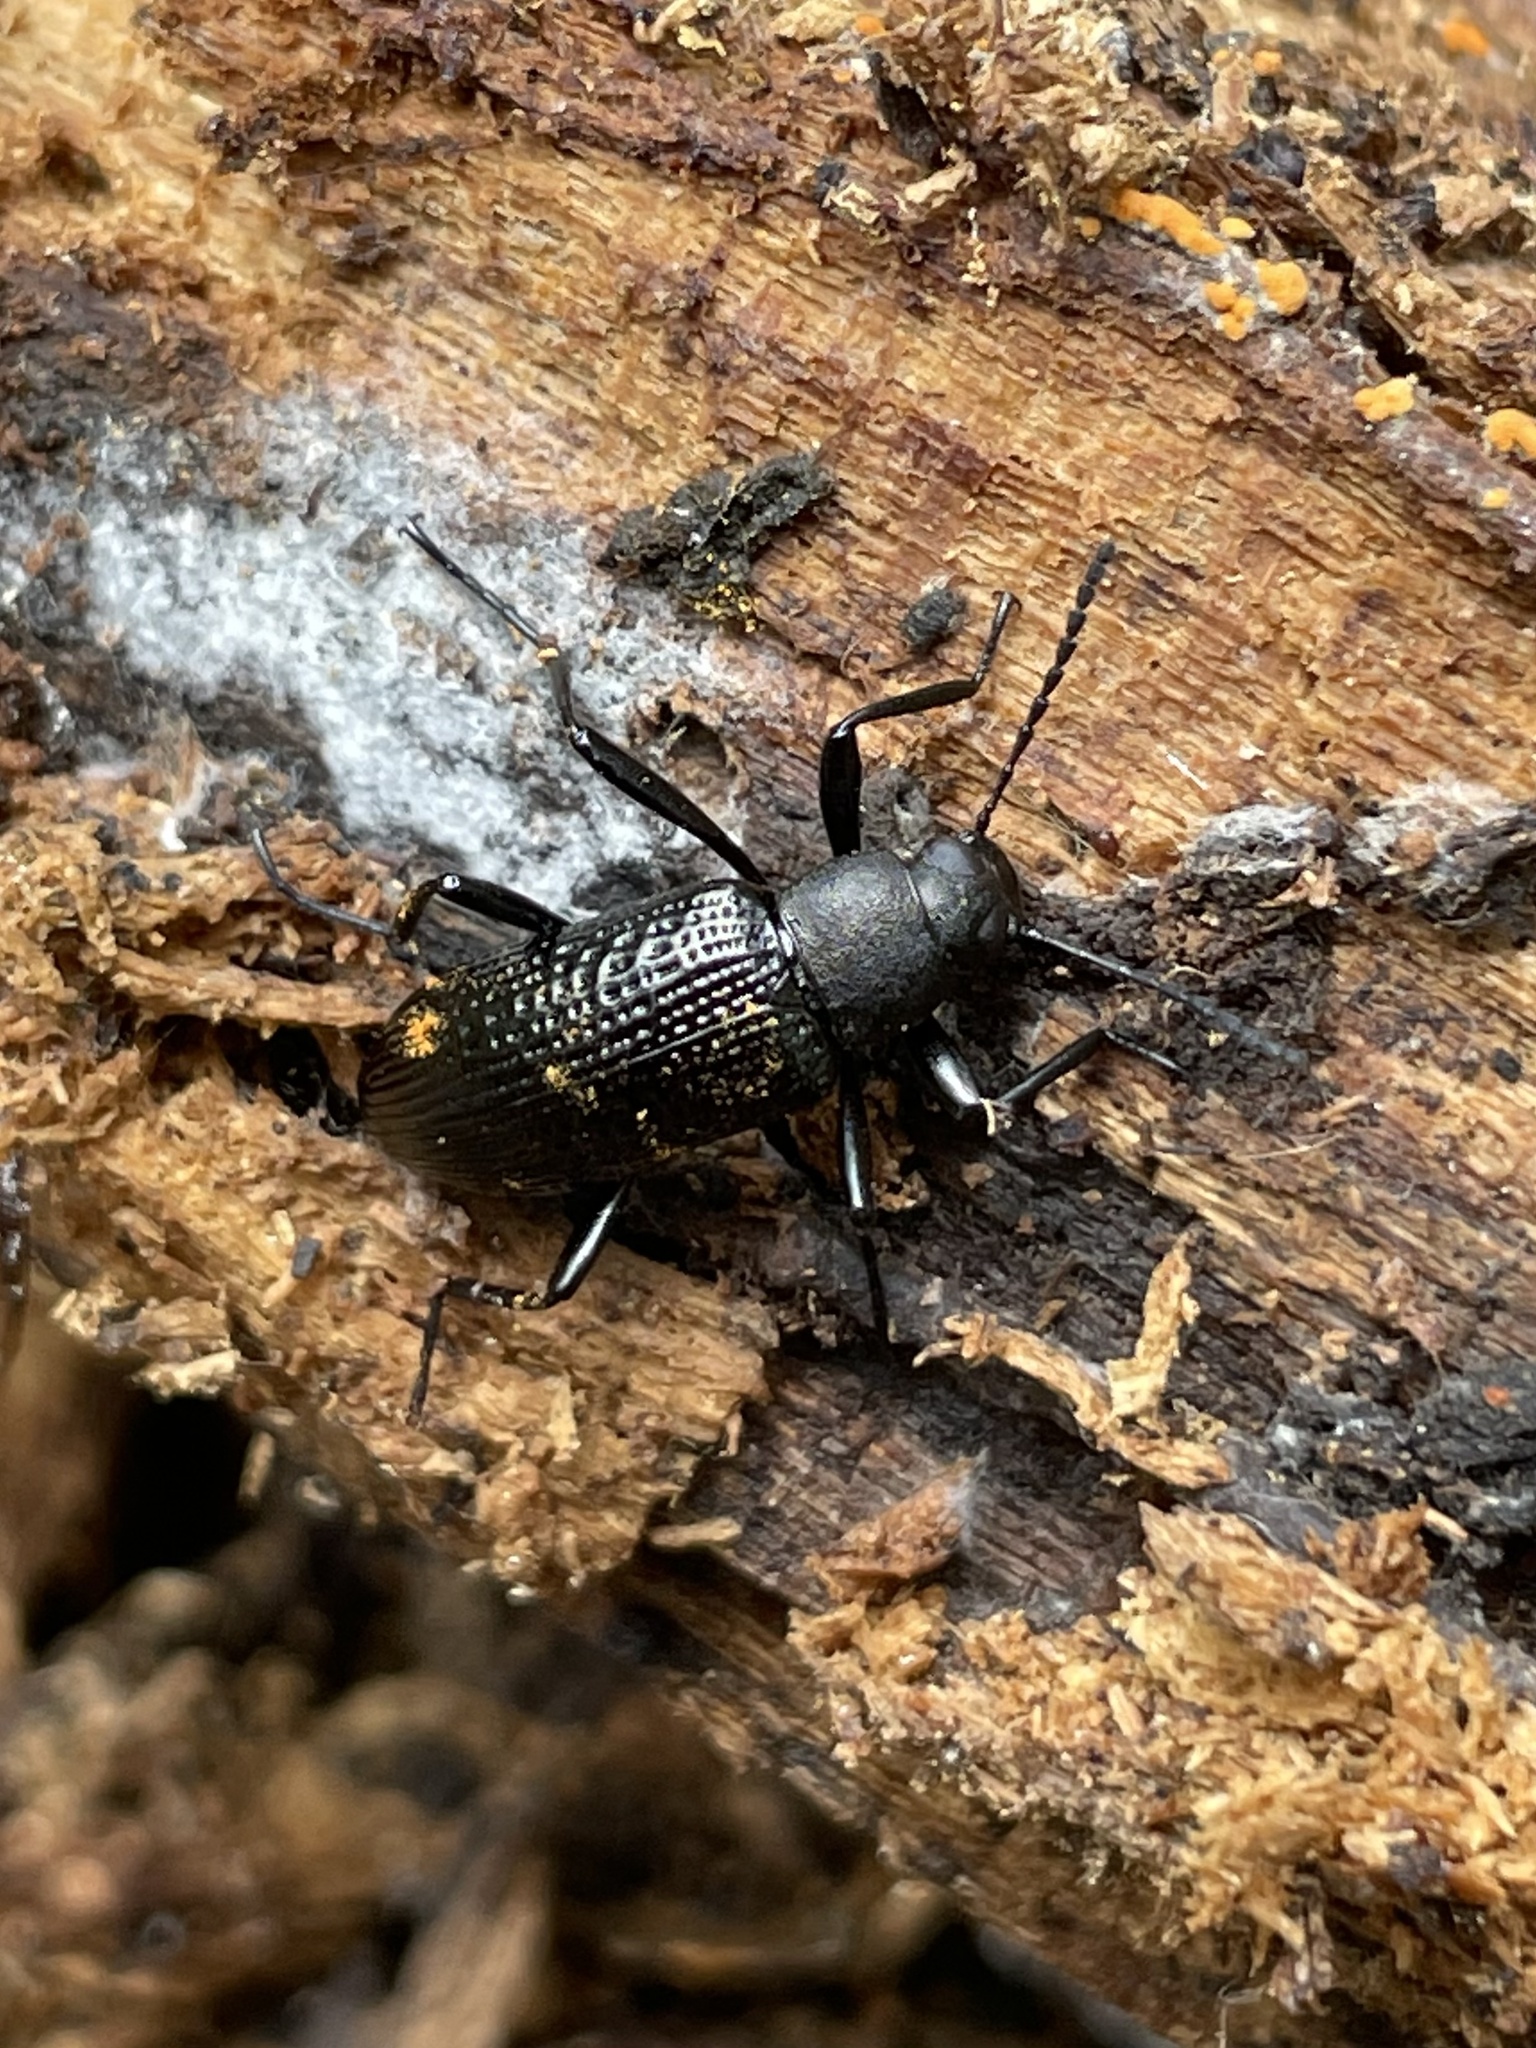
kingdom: Animalia
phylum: Arthropoda
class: Insecta
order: Coleoptera
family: Tenebrionidae
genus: Strongylium
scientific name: Strongylium hemistriatum
